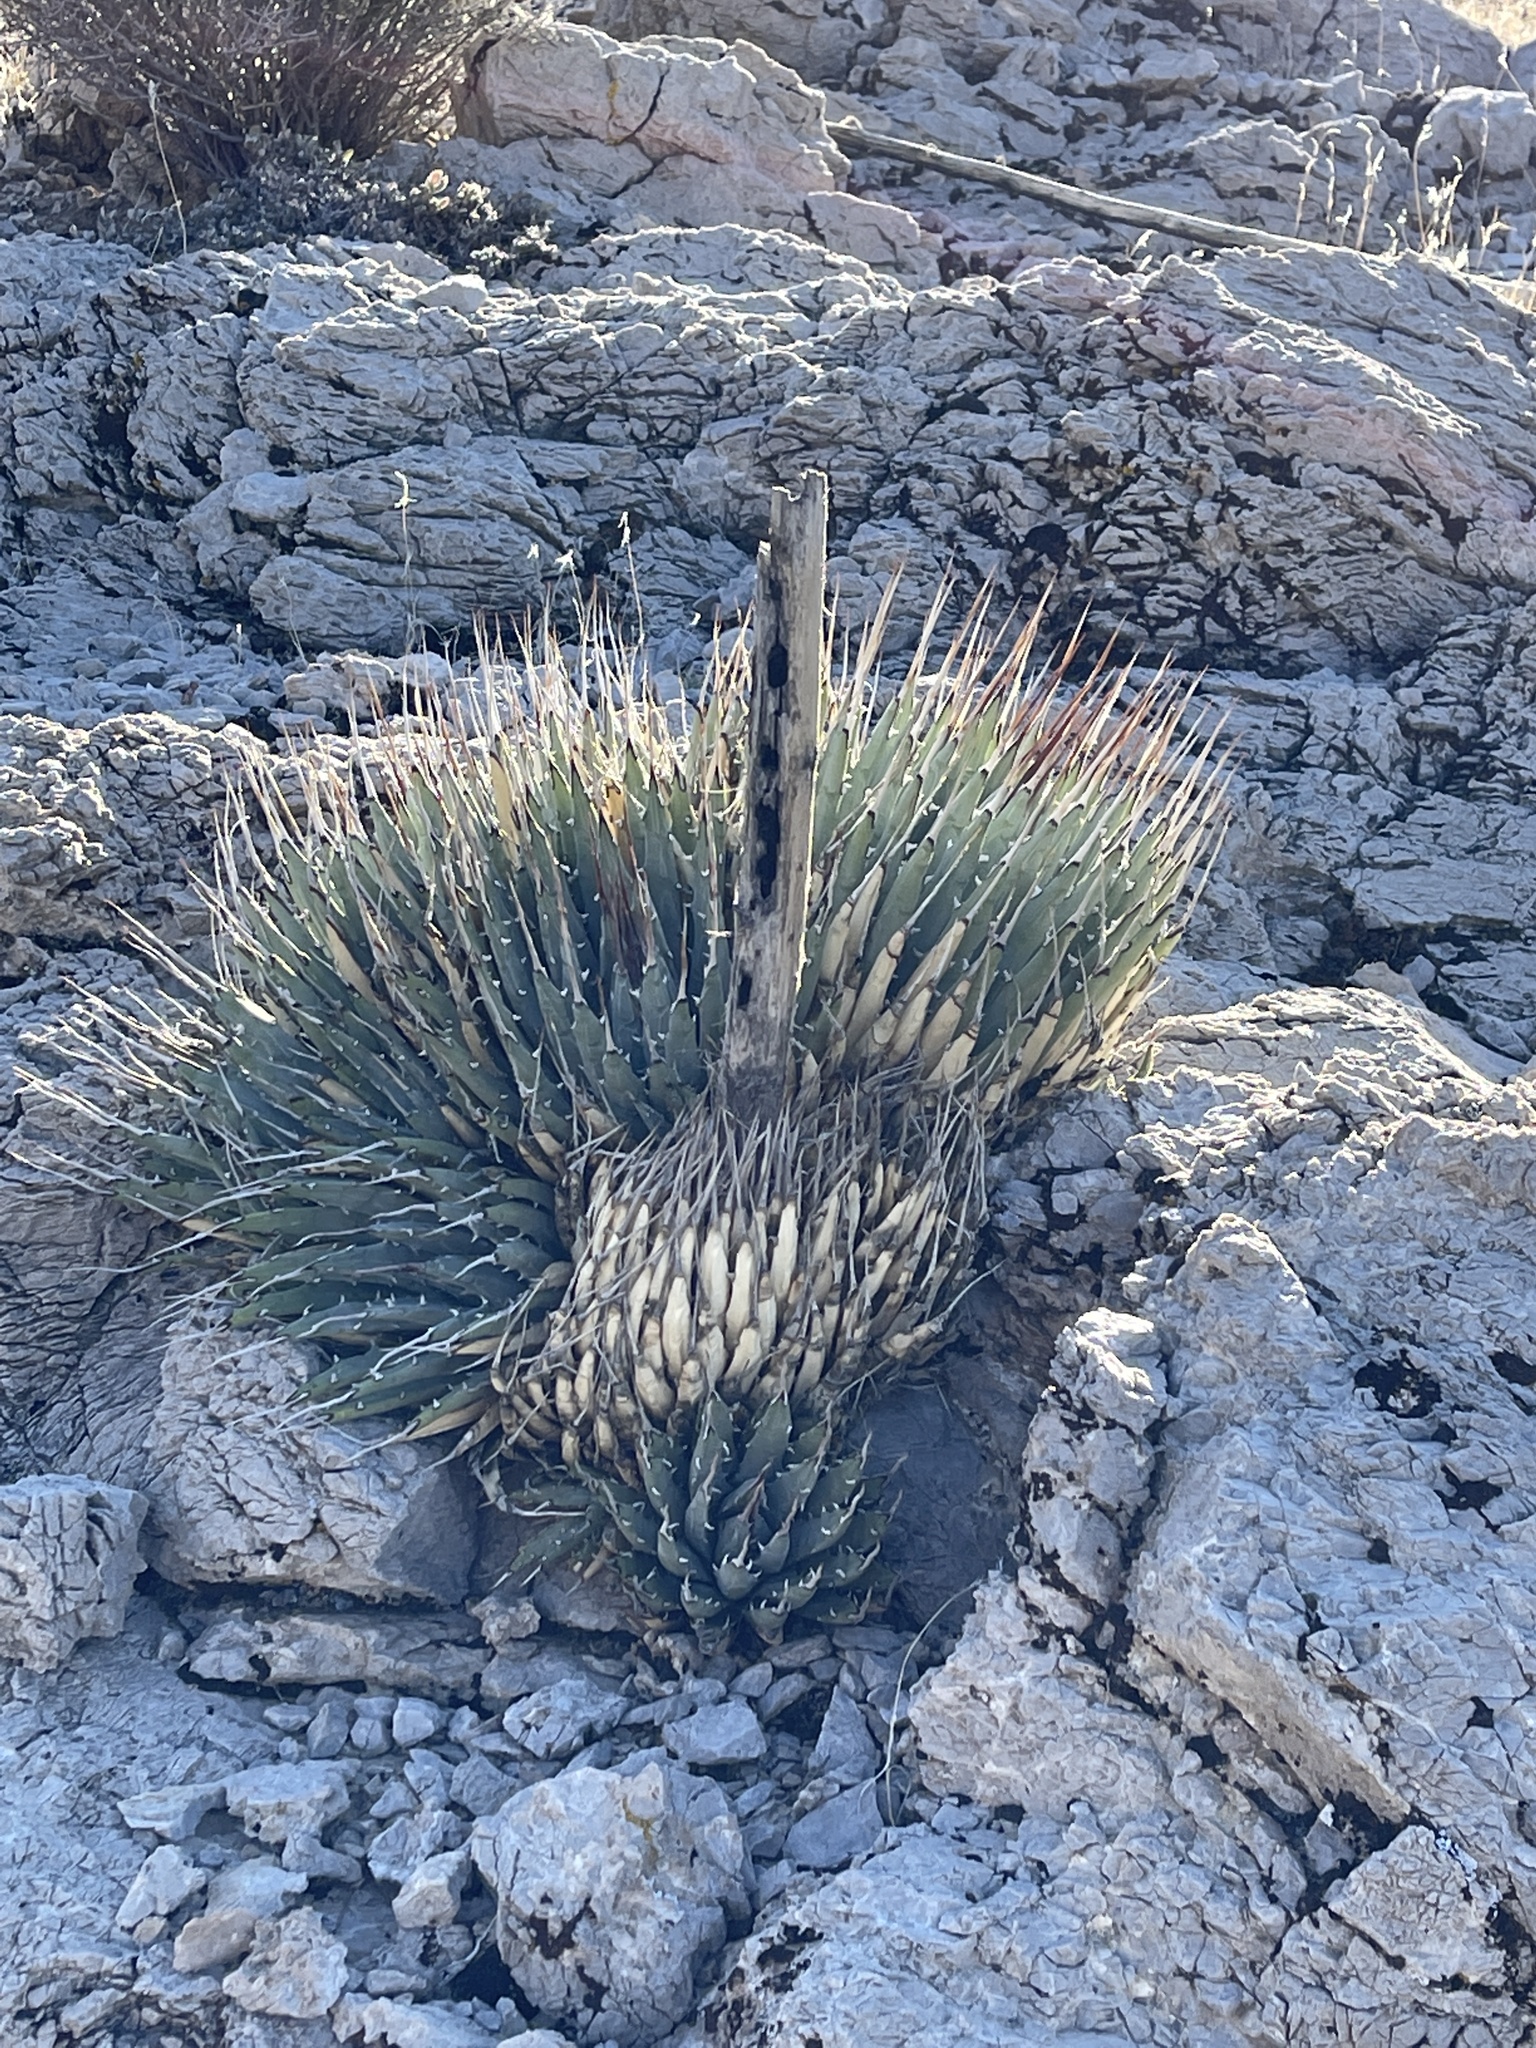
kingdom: Plantae
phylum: Tracheophyta
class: Liliopsida
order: Asparagales
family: Asparagaceae
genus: Agave
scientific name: Agave utahensis
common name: Utah agave
